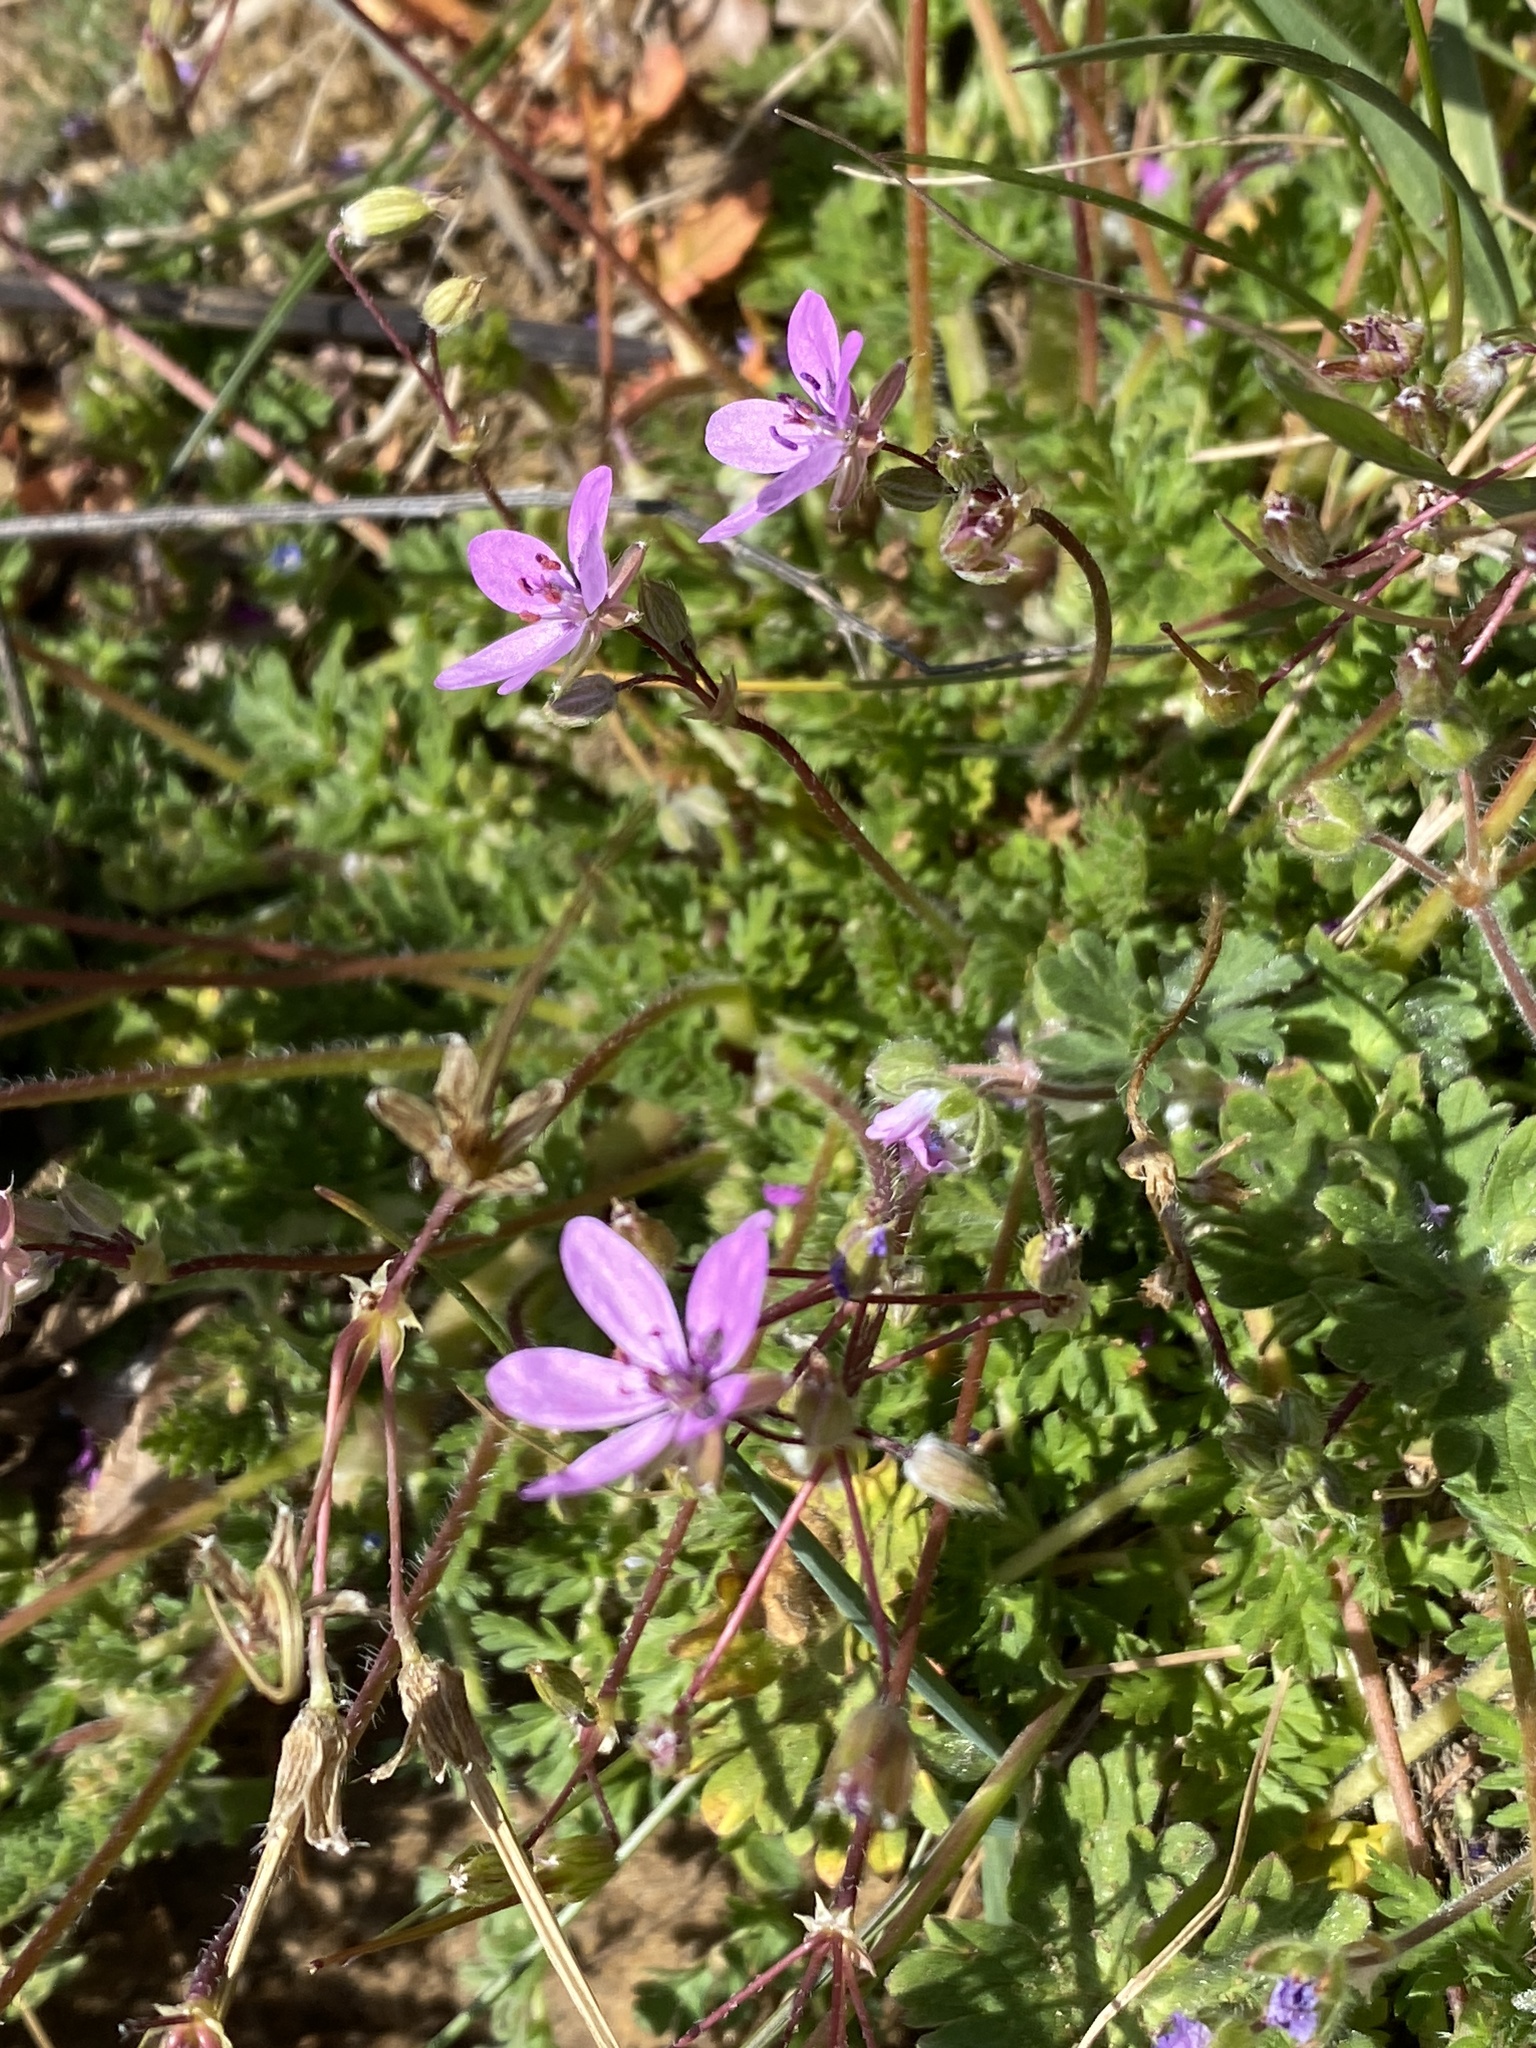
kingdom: Plantae
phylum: Tracheophyta
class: Magnoliopsida
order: Geraniales
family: Geraniaceae
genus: Erodium
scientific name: Erodium cicutarium
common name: Common stork's-bill
